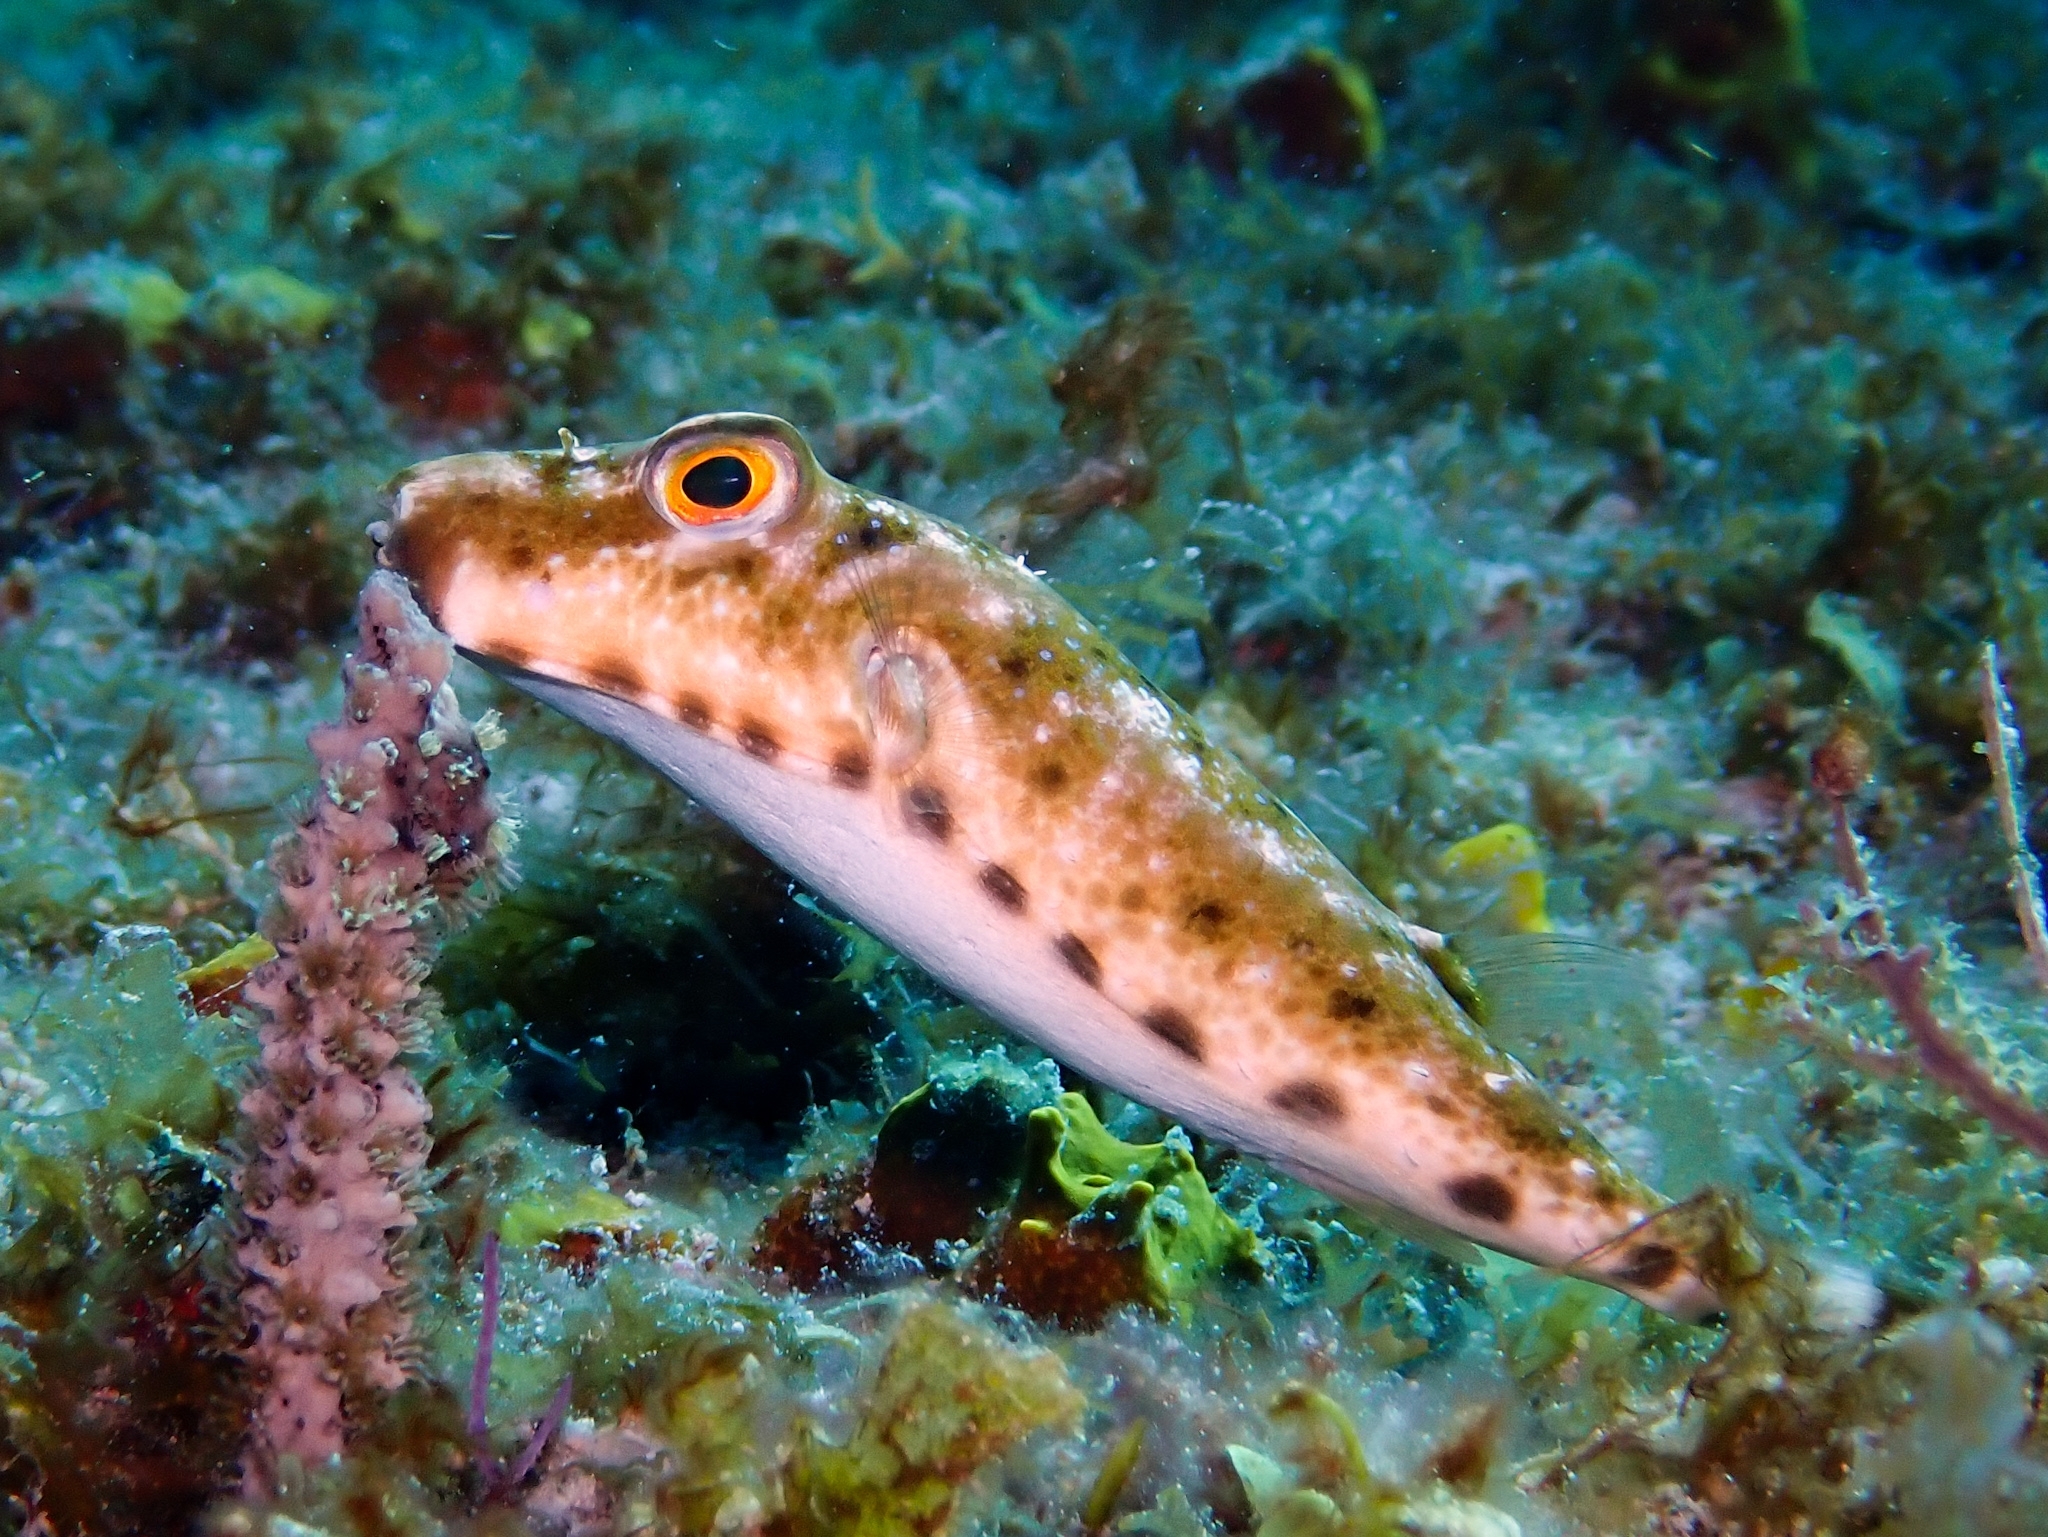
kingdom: Animalia
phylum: Chordata
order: Tetraodontiformes
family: Tetraodontidae
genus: Sphoeroides
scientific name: Sphoeroides spengleri
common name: Bandtail puffer
